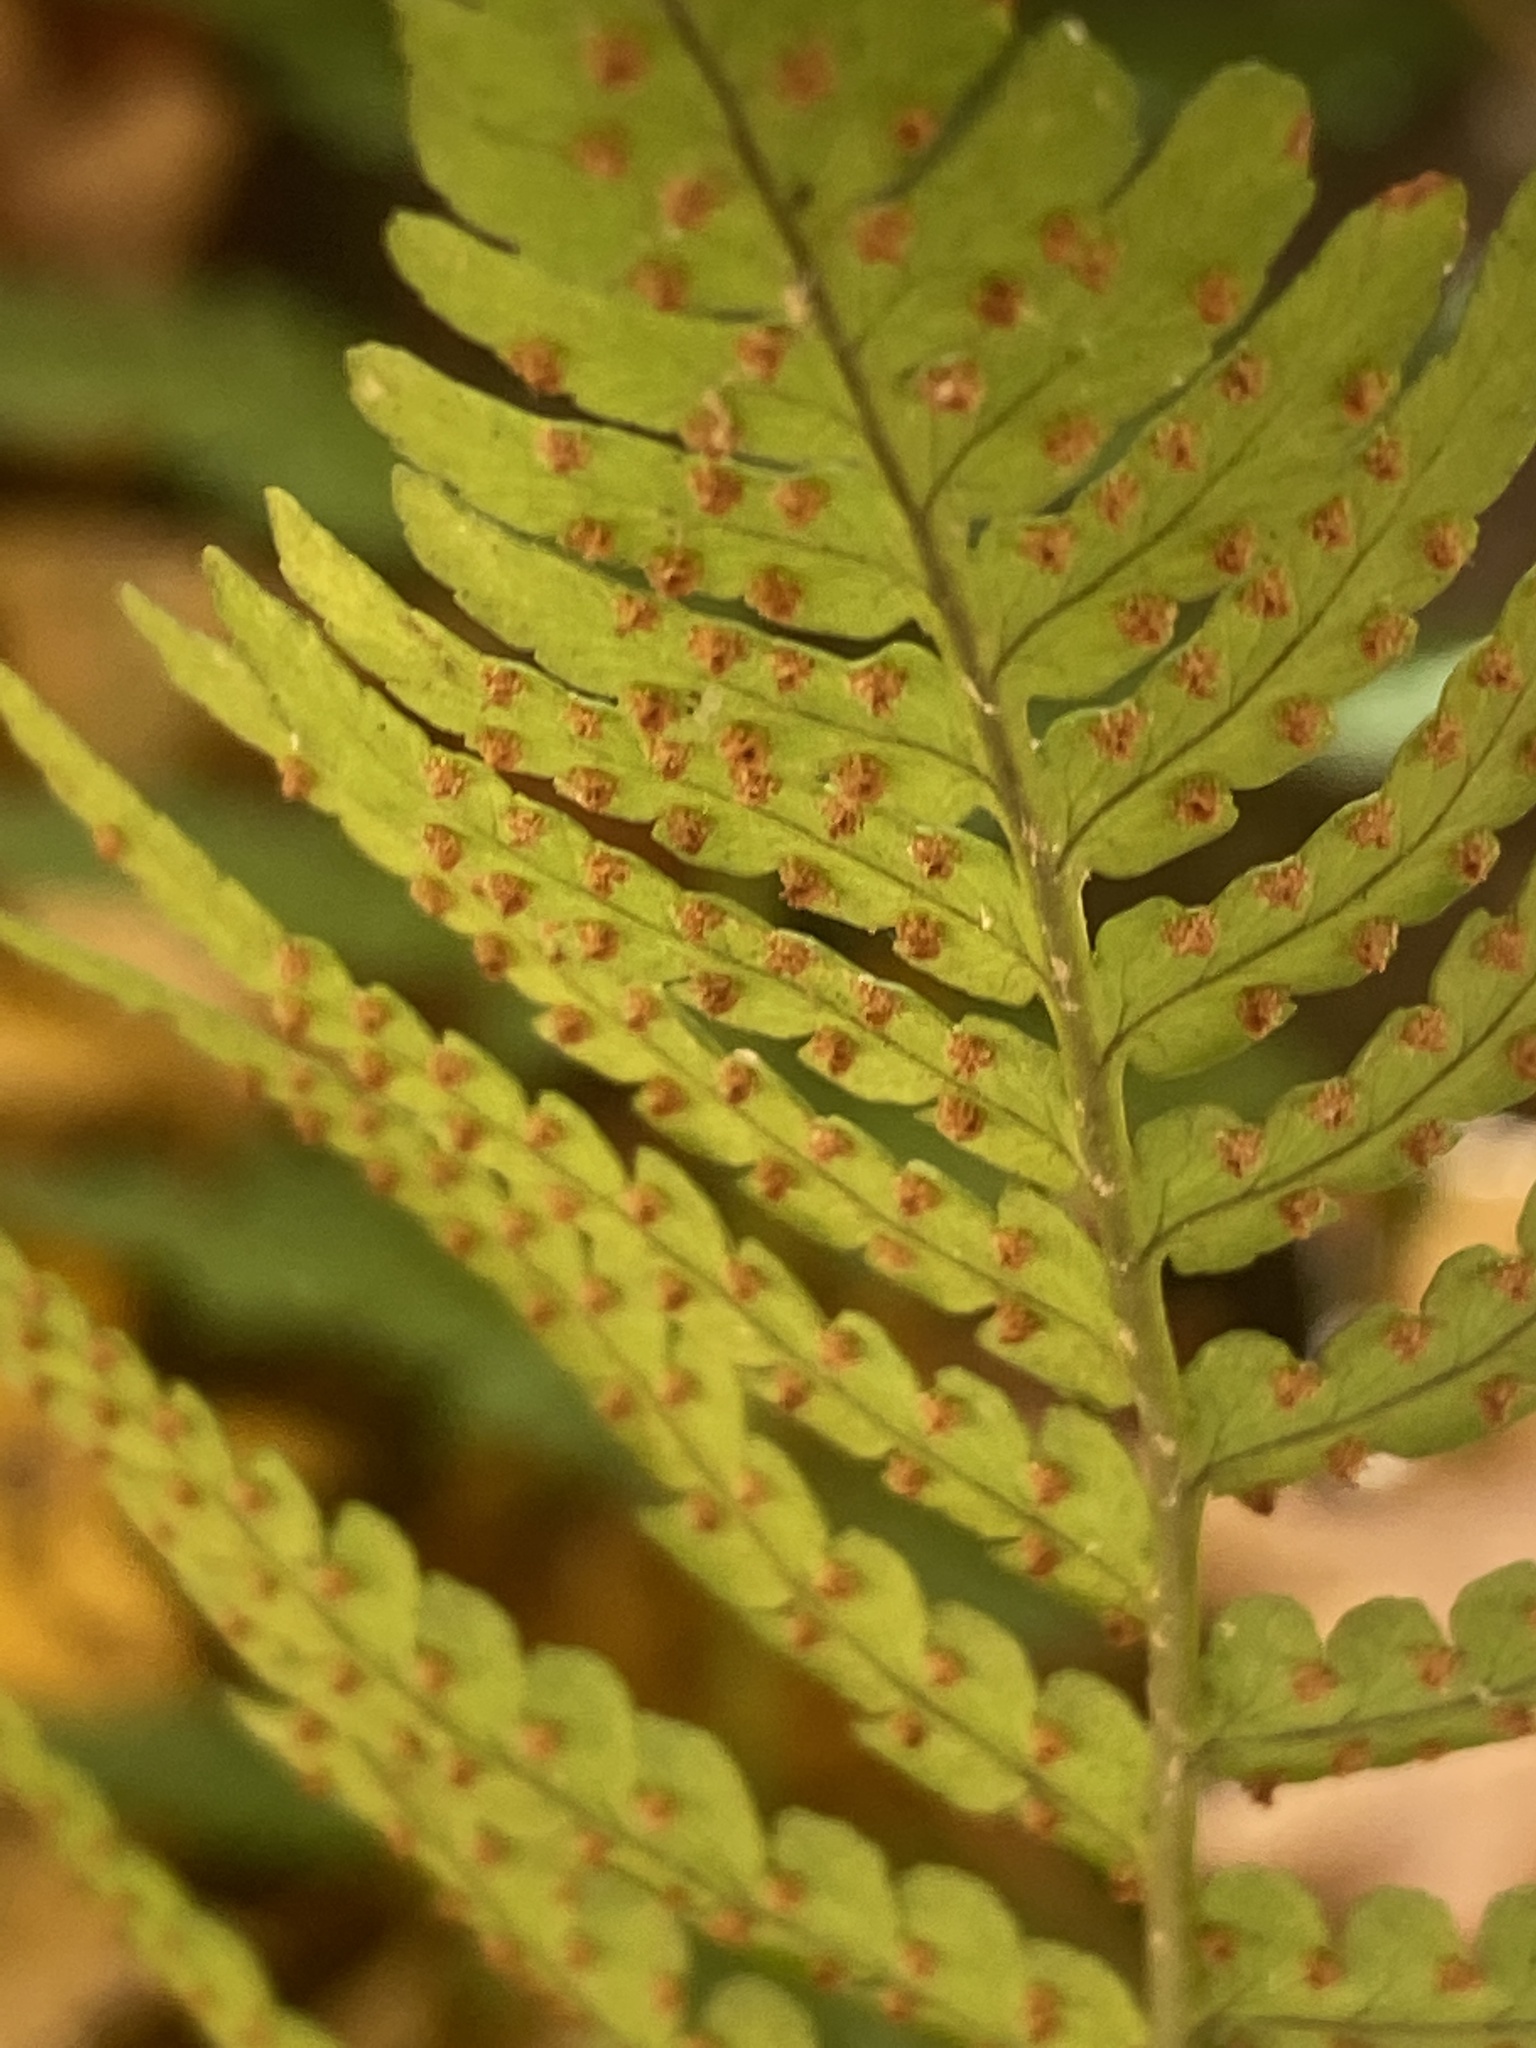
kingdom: Plantae
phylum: Tracheophyta
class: Polypodiopsida
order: Polypodiales
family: Dryopteridaceae
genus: Dryopteris
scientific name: Dryopteris marginalis
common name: Marginal wood fern
